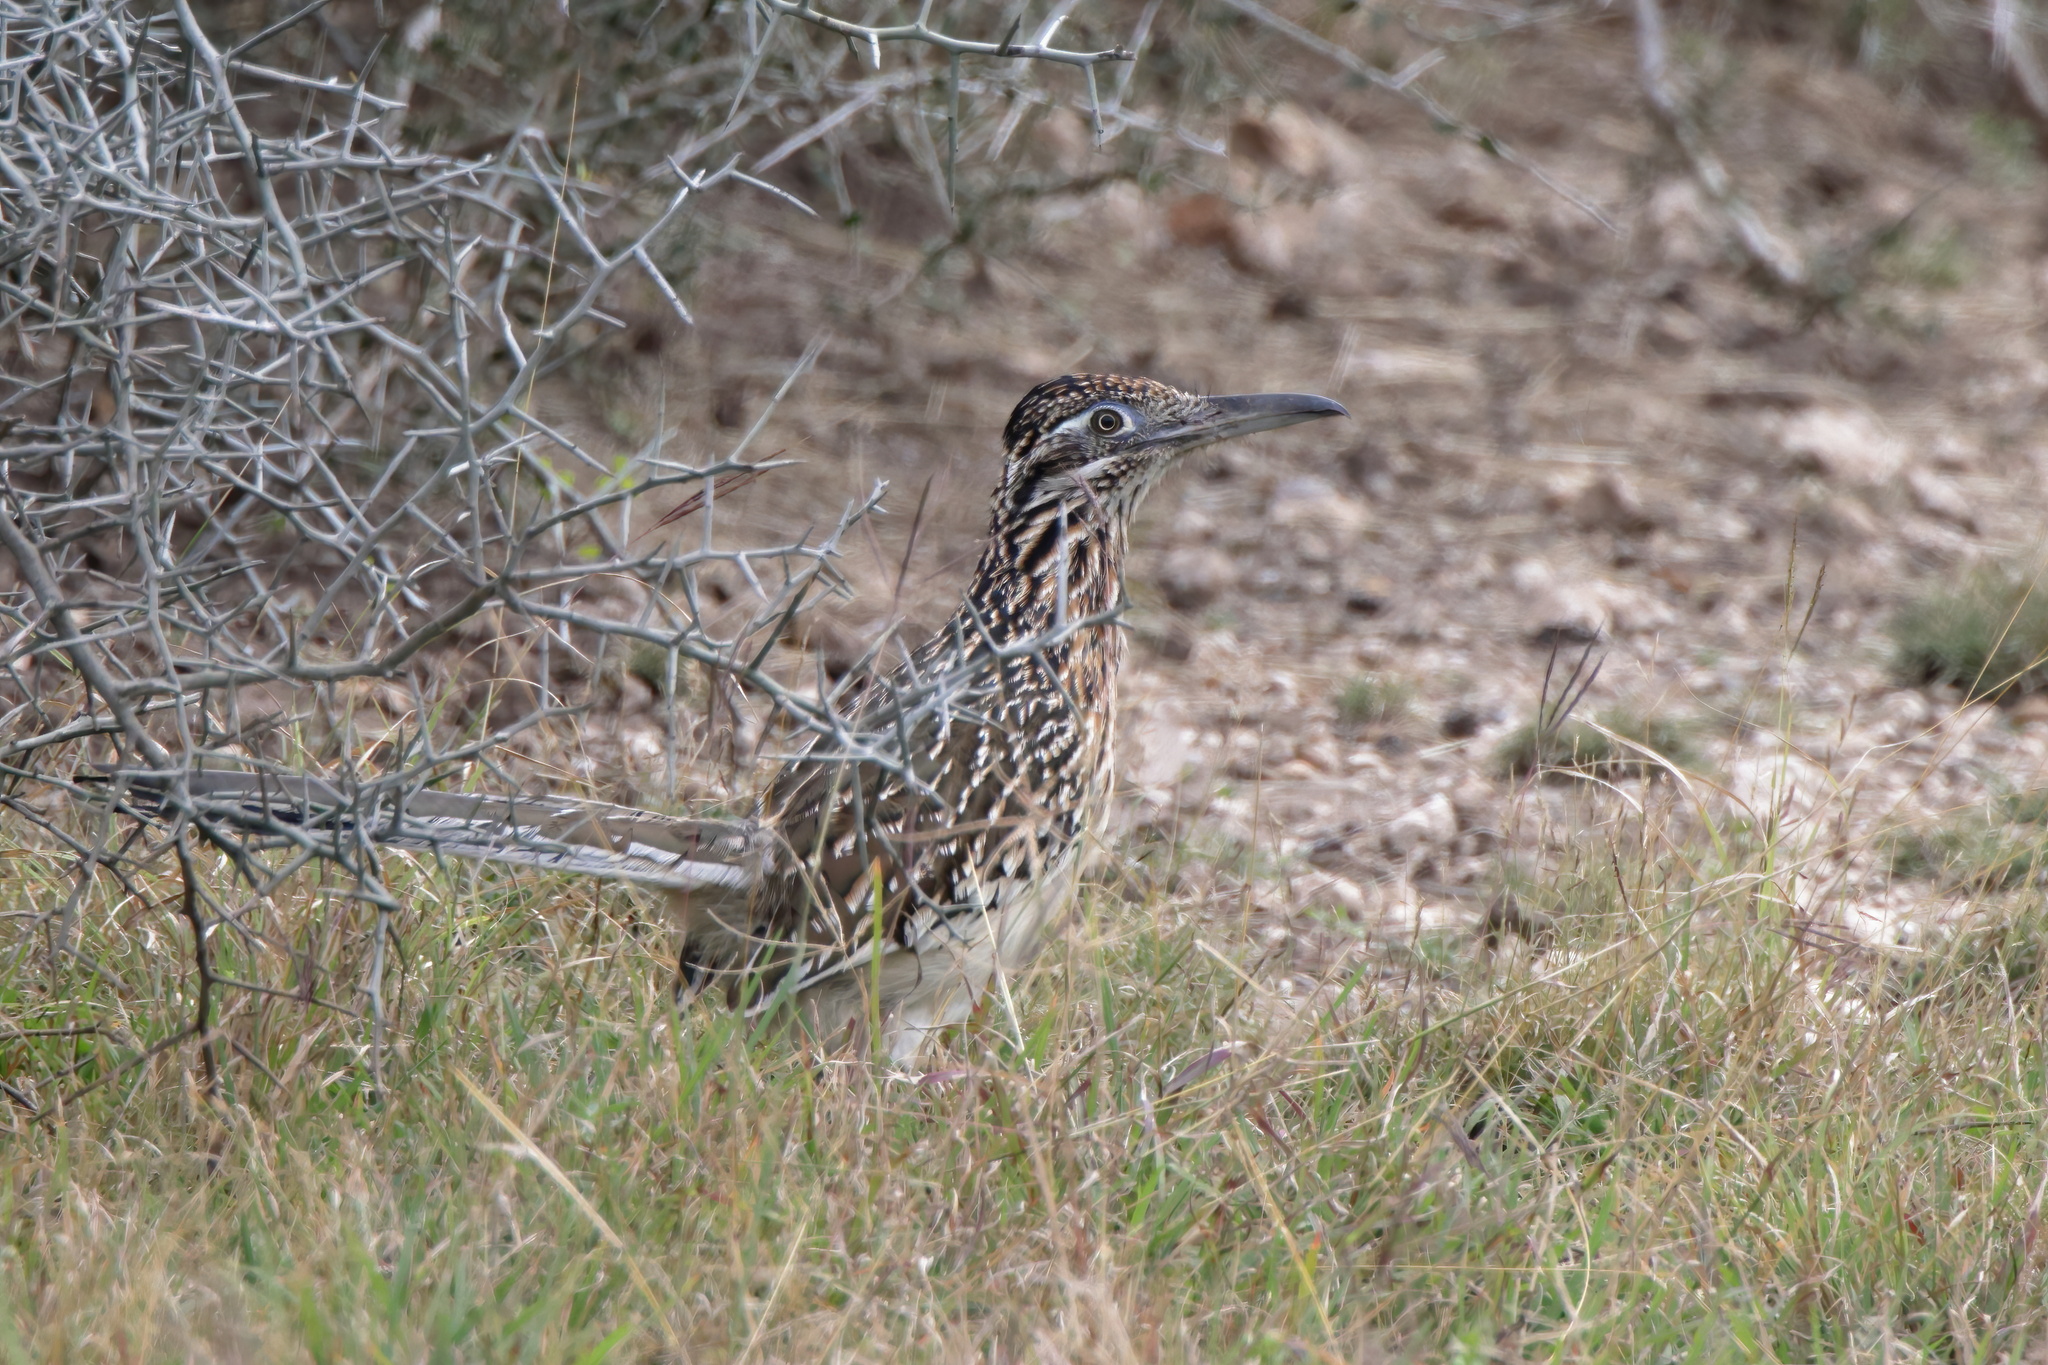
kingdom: Animalia
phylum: Chordata
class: Aves
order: Cuculiformes
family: Cuculidae
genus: Geococcyx
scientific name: Geococcyx californianus
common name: Greater roadrunner
